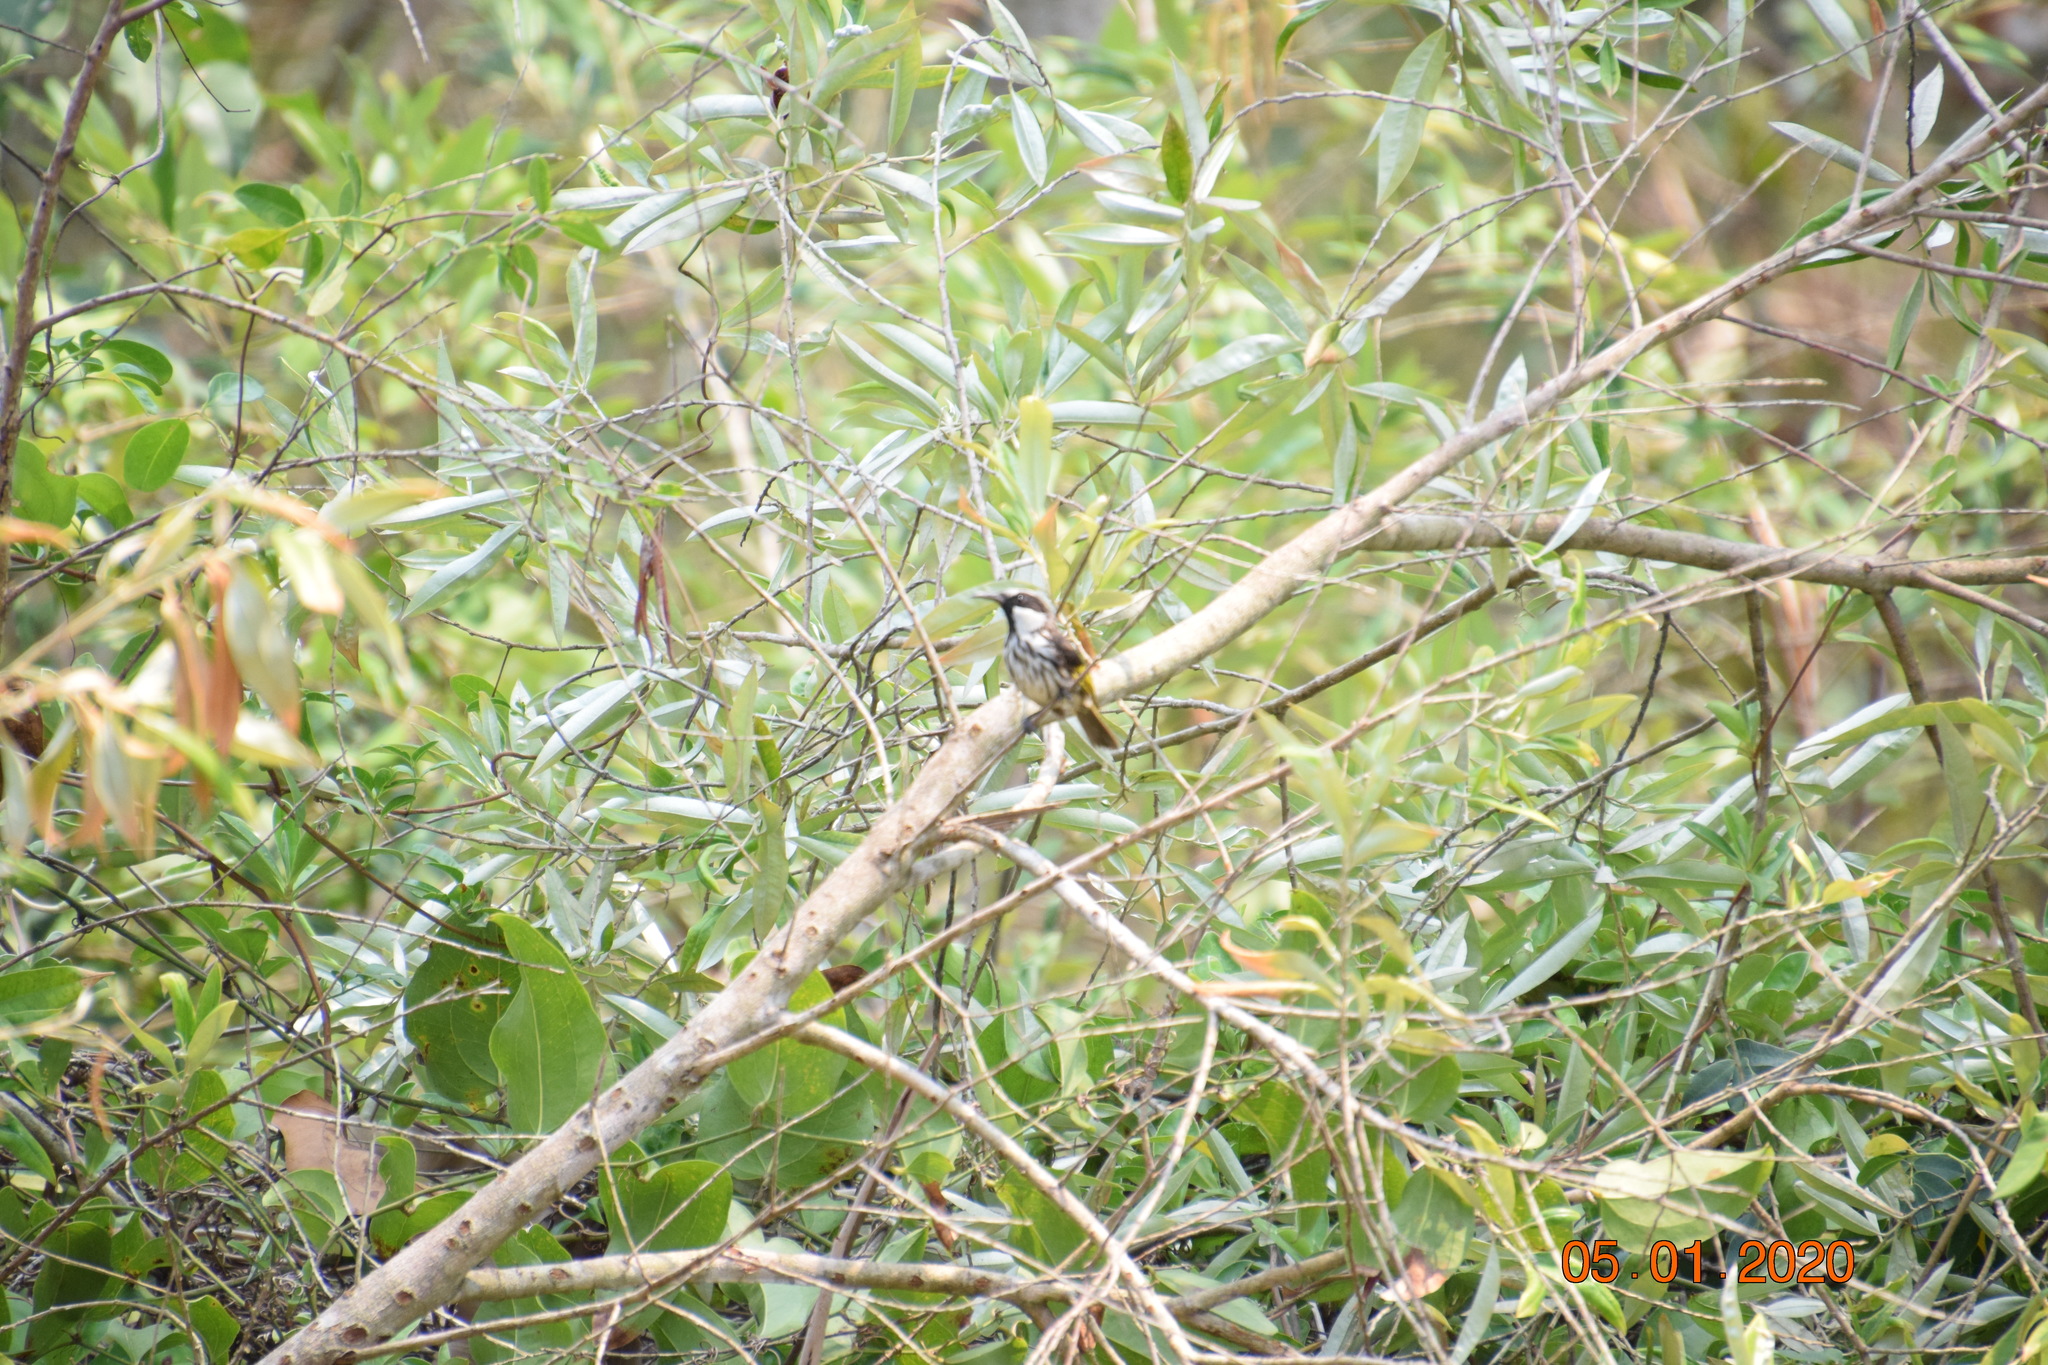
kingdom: Animalia
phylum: Chordata
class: Aves
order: Passeriformes
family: Meliphagidae
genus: Phylidonyris
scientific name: Phylidonyris niger
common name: White-cheeked honeyeater
